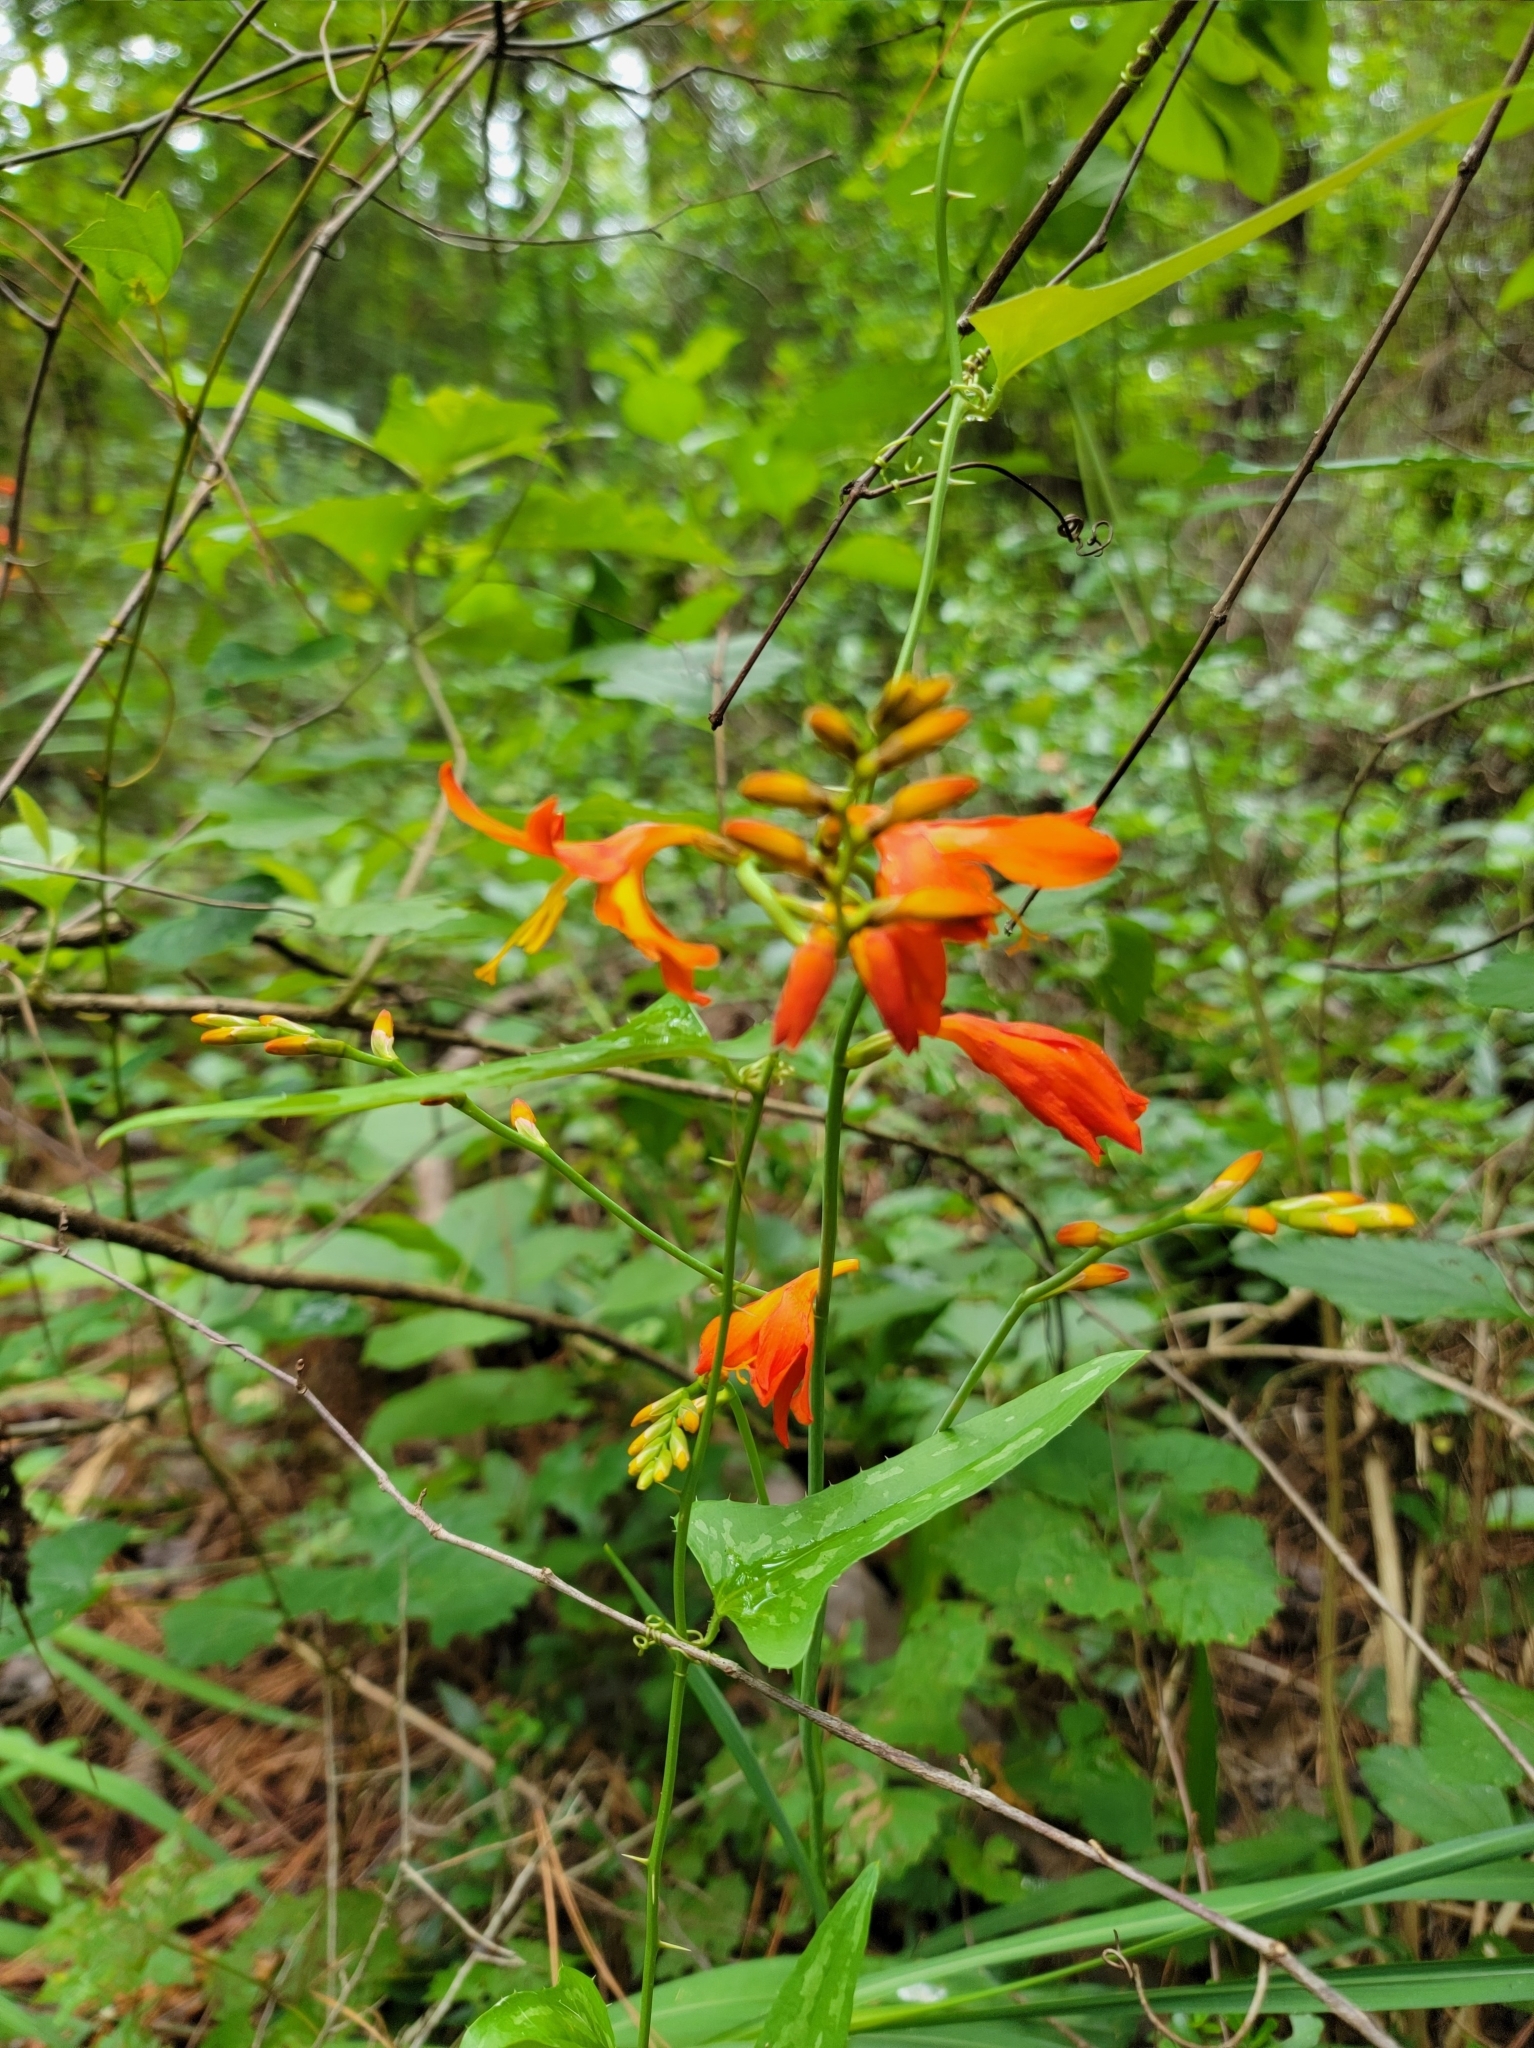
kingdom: Plantae
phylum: Tracheophyta
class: Liliopsida
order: Asparagales
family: Iridaceae
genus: Crocosmia
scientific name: Crocosmia crocosmiiflora
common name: Montbretia
